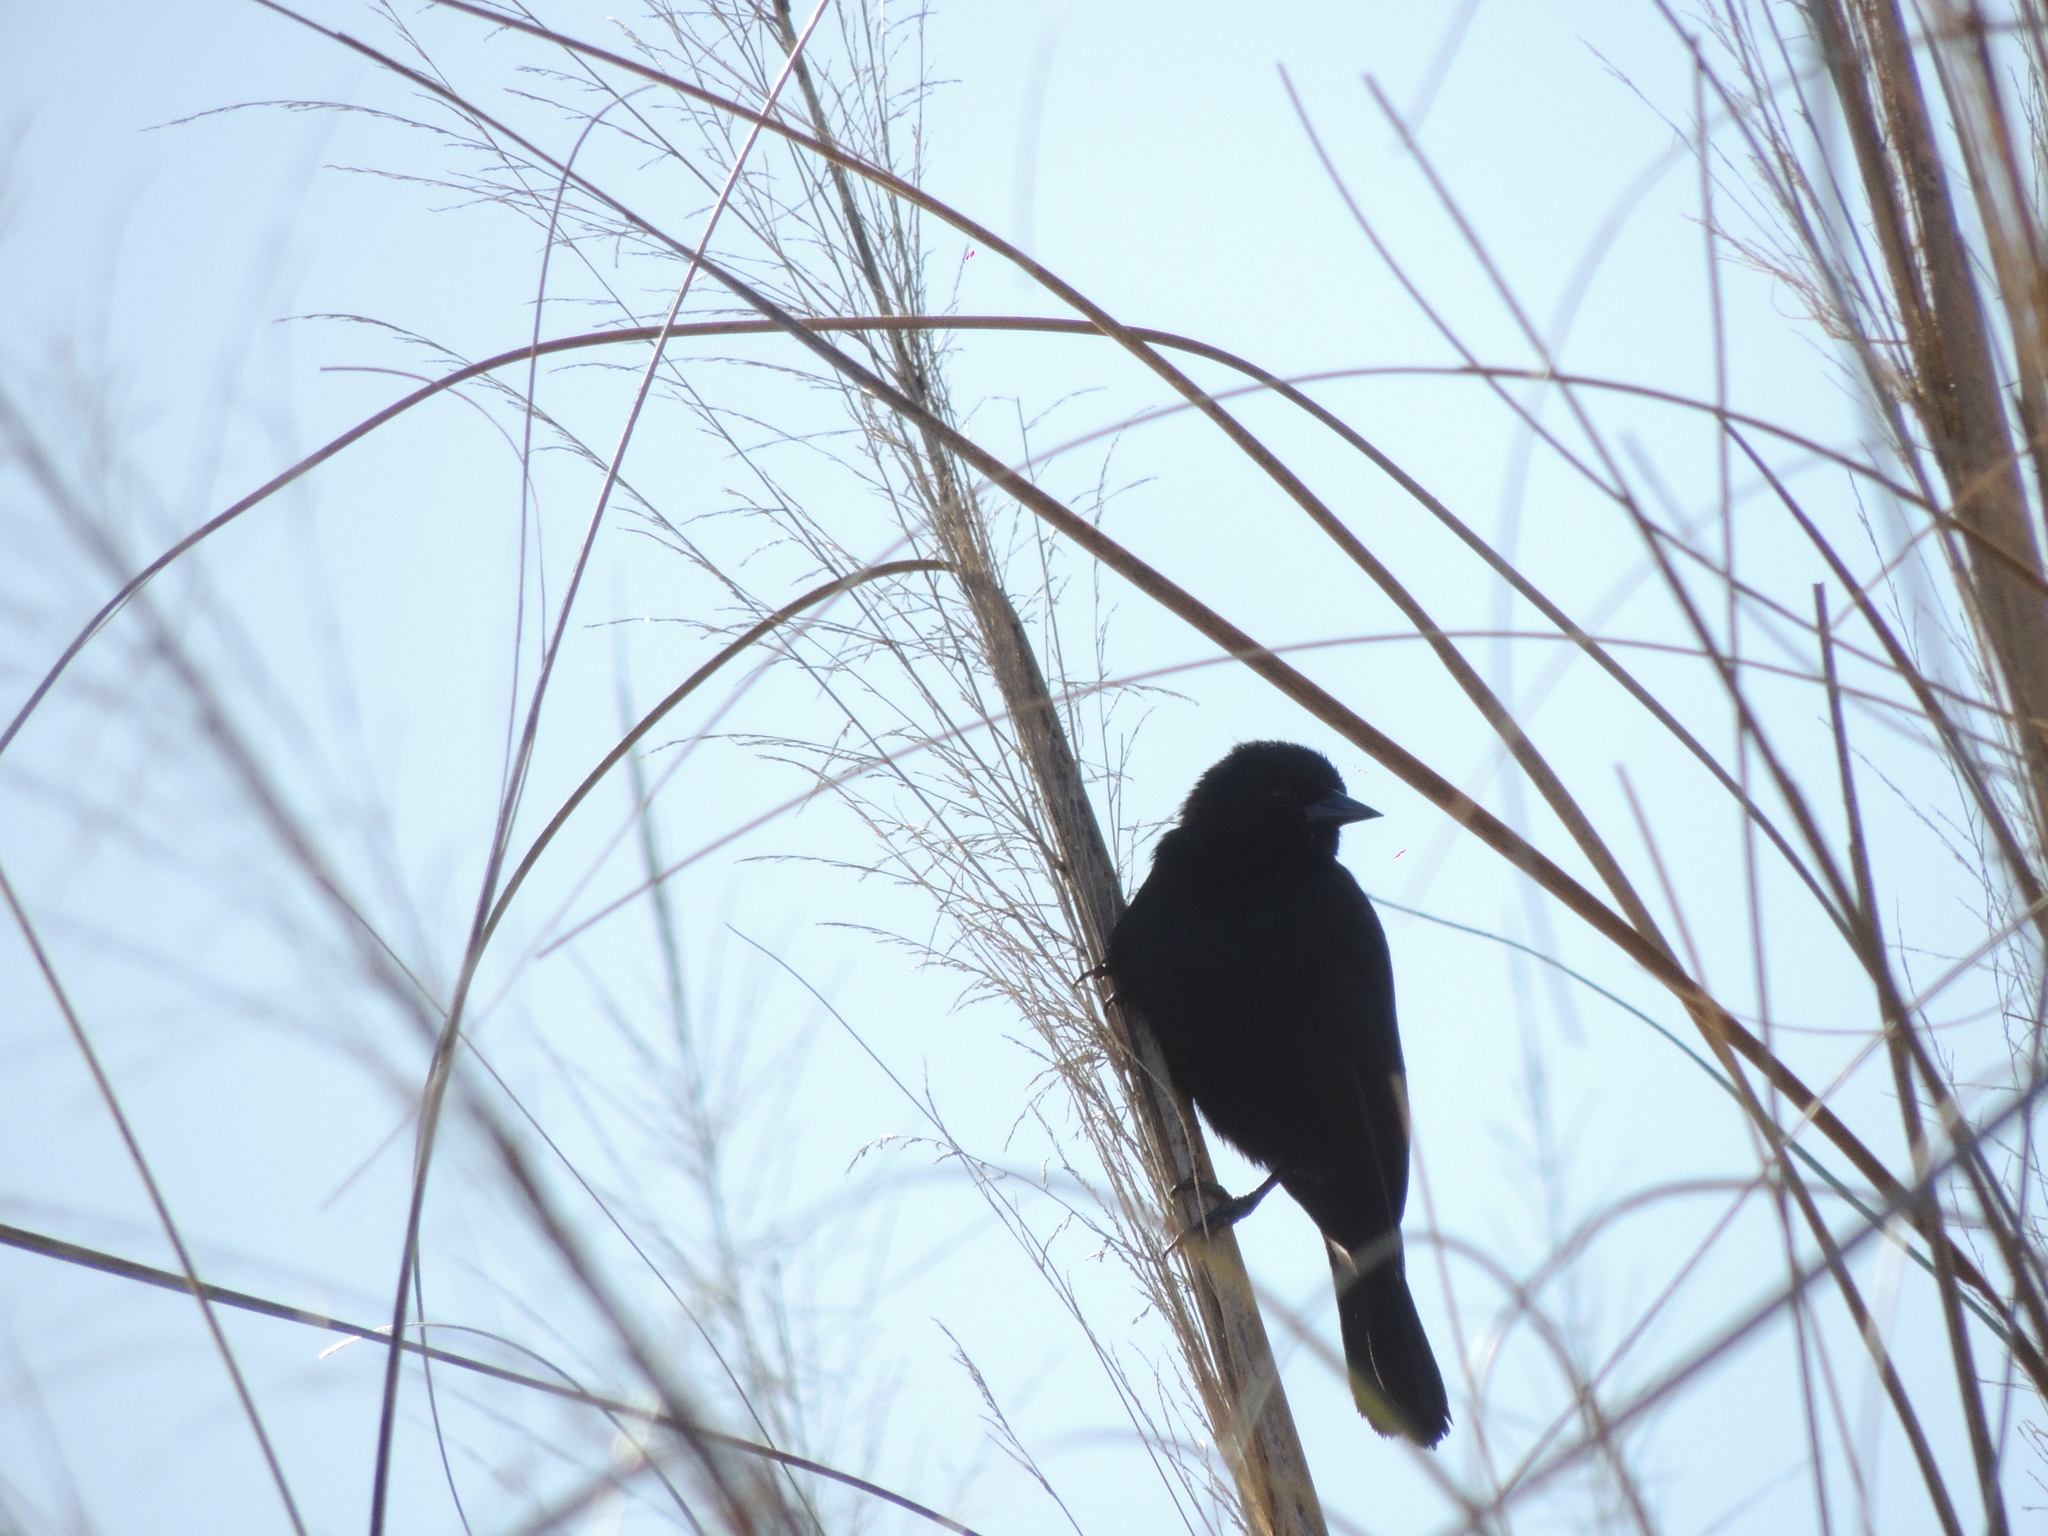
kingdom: Animalia
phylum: Chordata
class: Aves
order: Passeriformes
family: Icteridae
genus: Agelasticus
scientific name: Agelasticus cyanopus
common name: Unicolored blackbird
